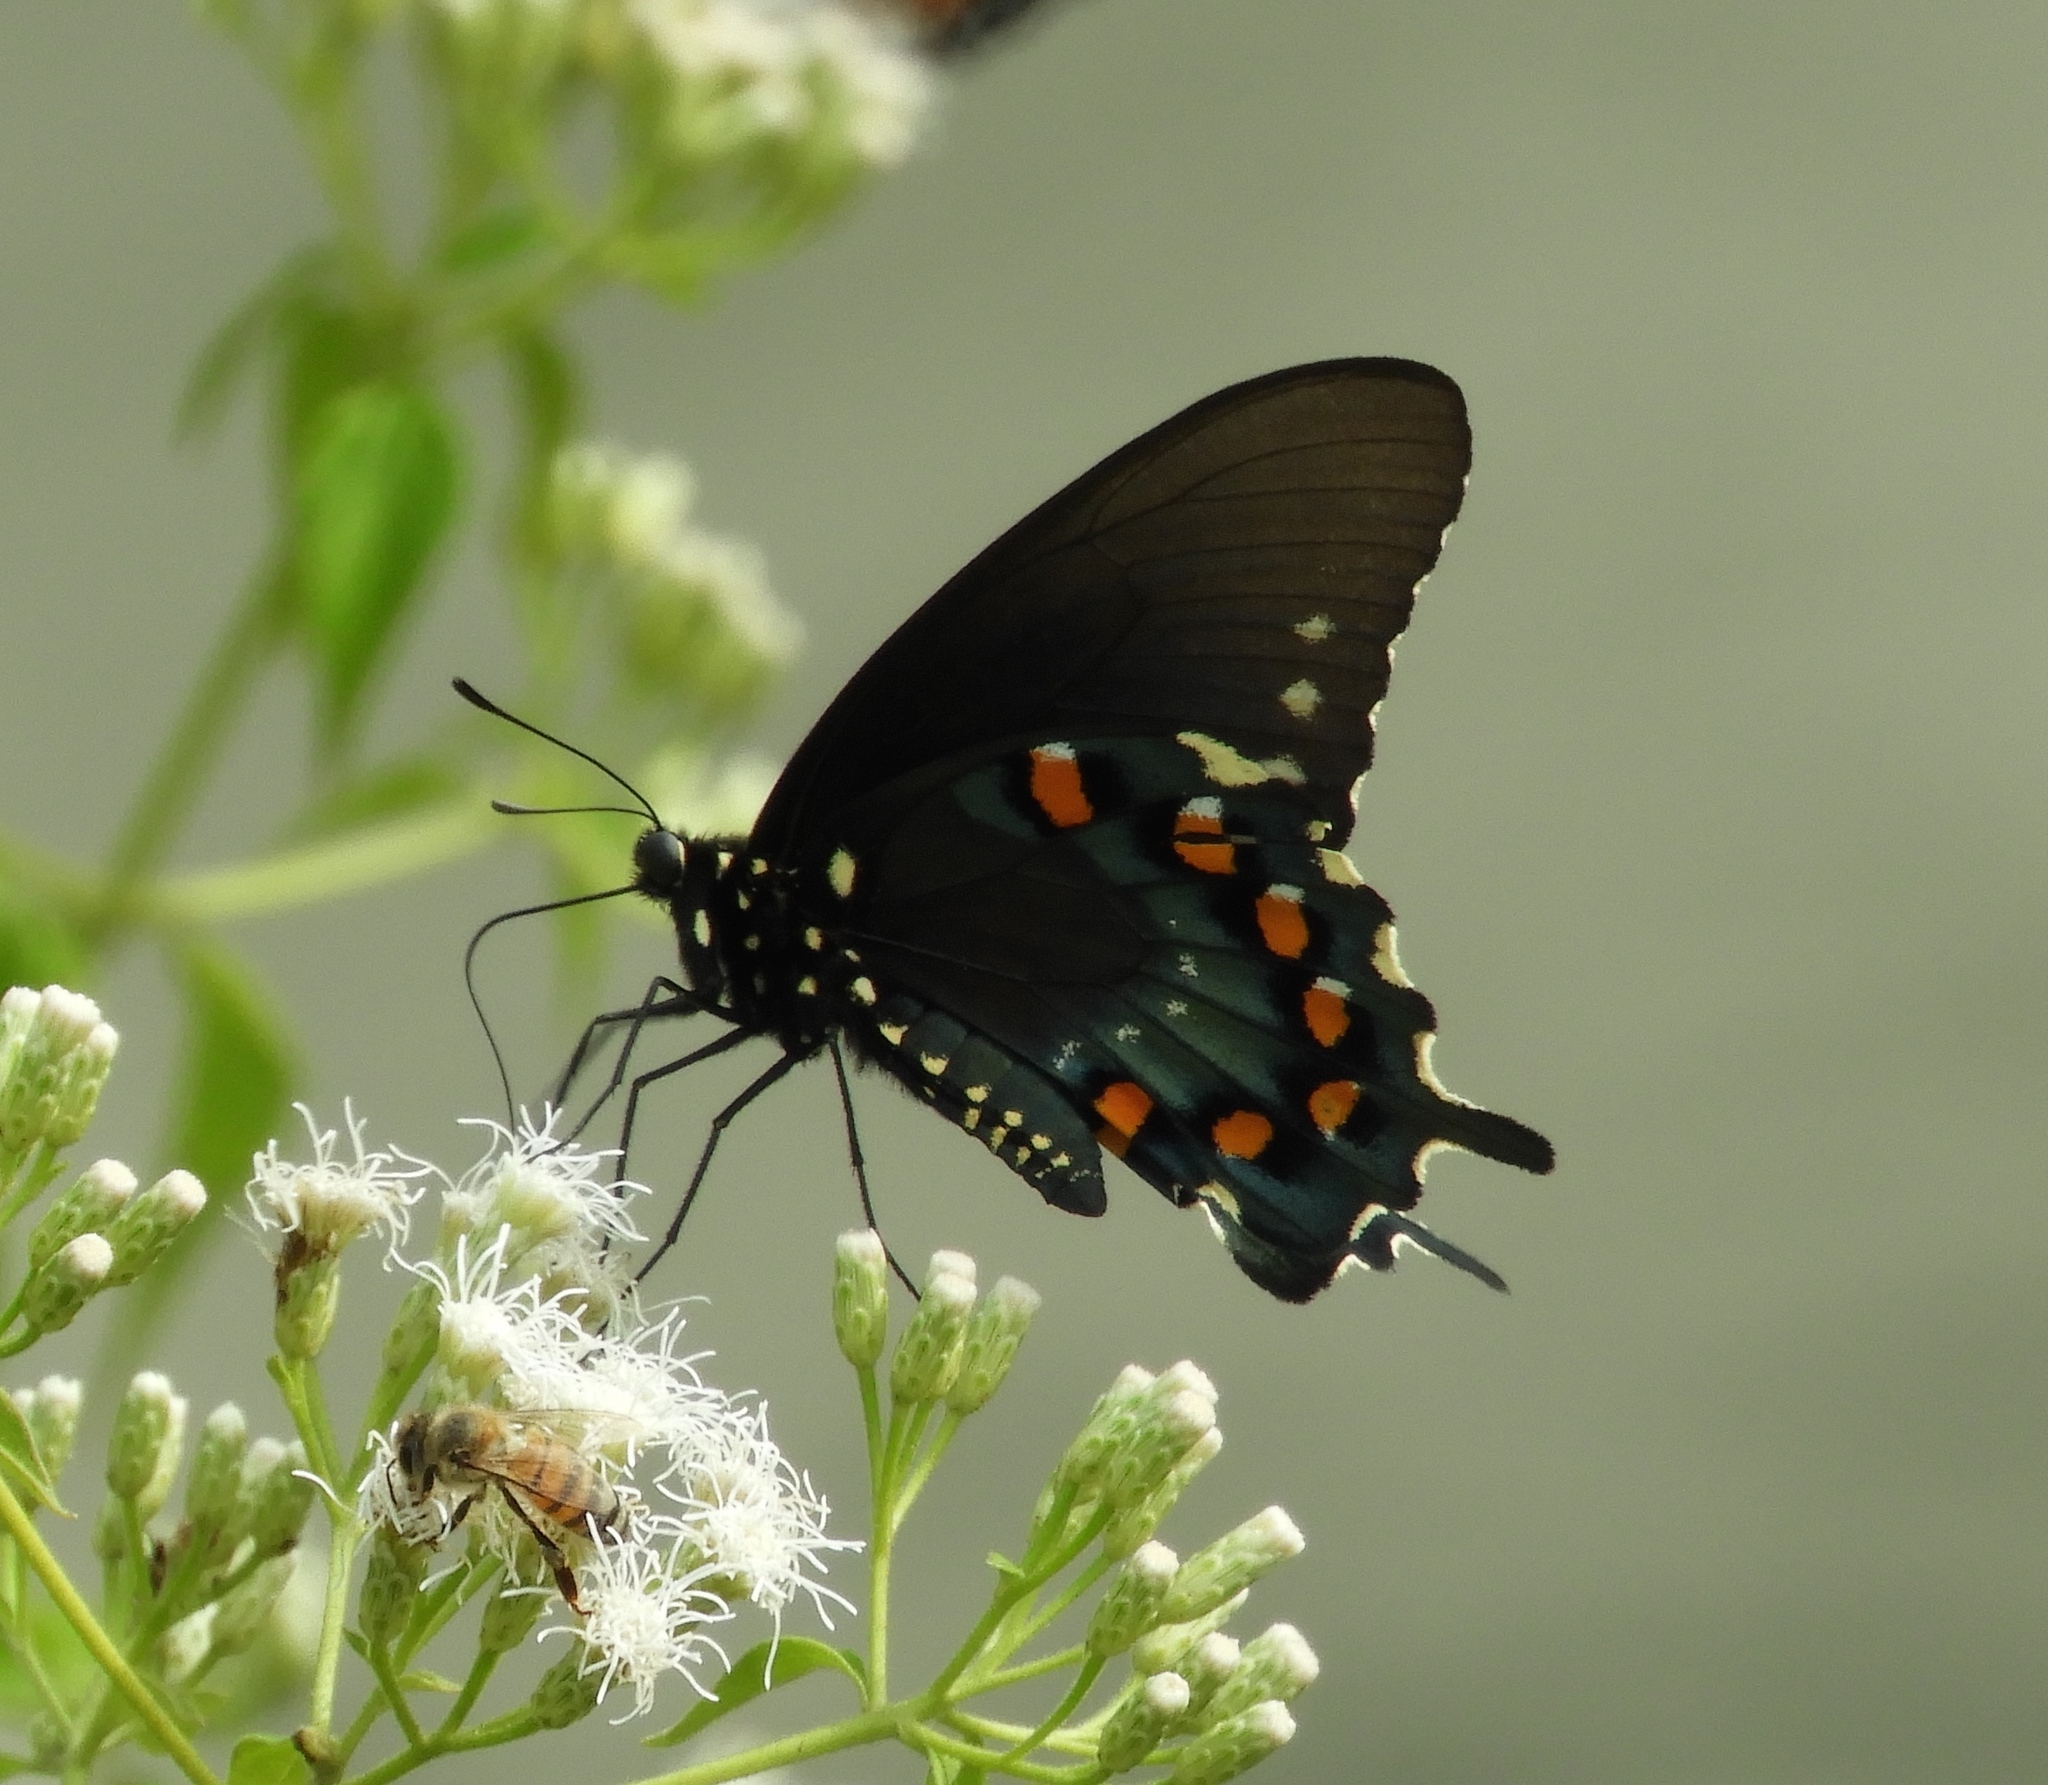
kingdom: Animalia
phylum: Arthropoda
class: Insecta
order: Lepidoptera
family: Papilionidae
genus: Battus
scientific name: Battus philenor
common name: Pipevine swallowtail
